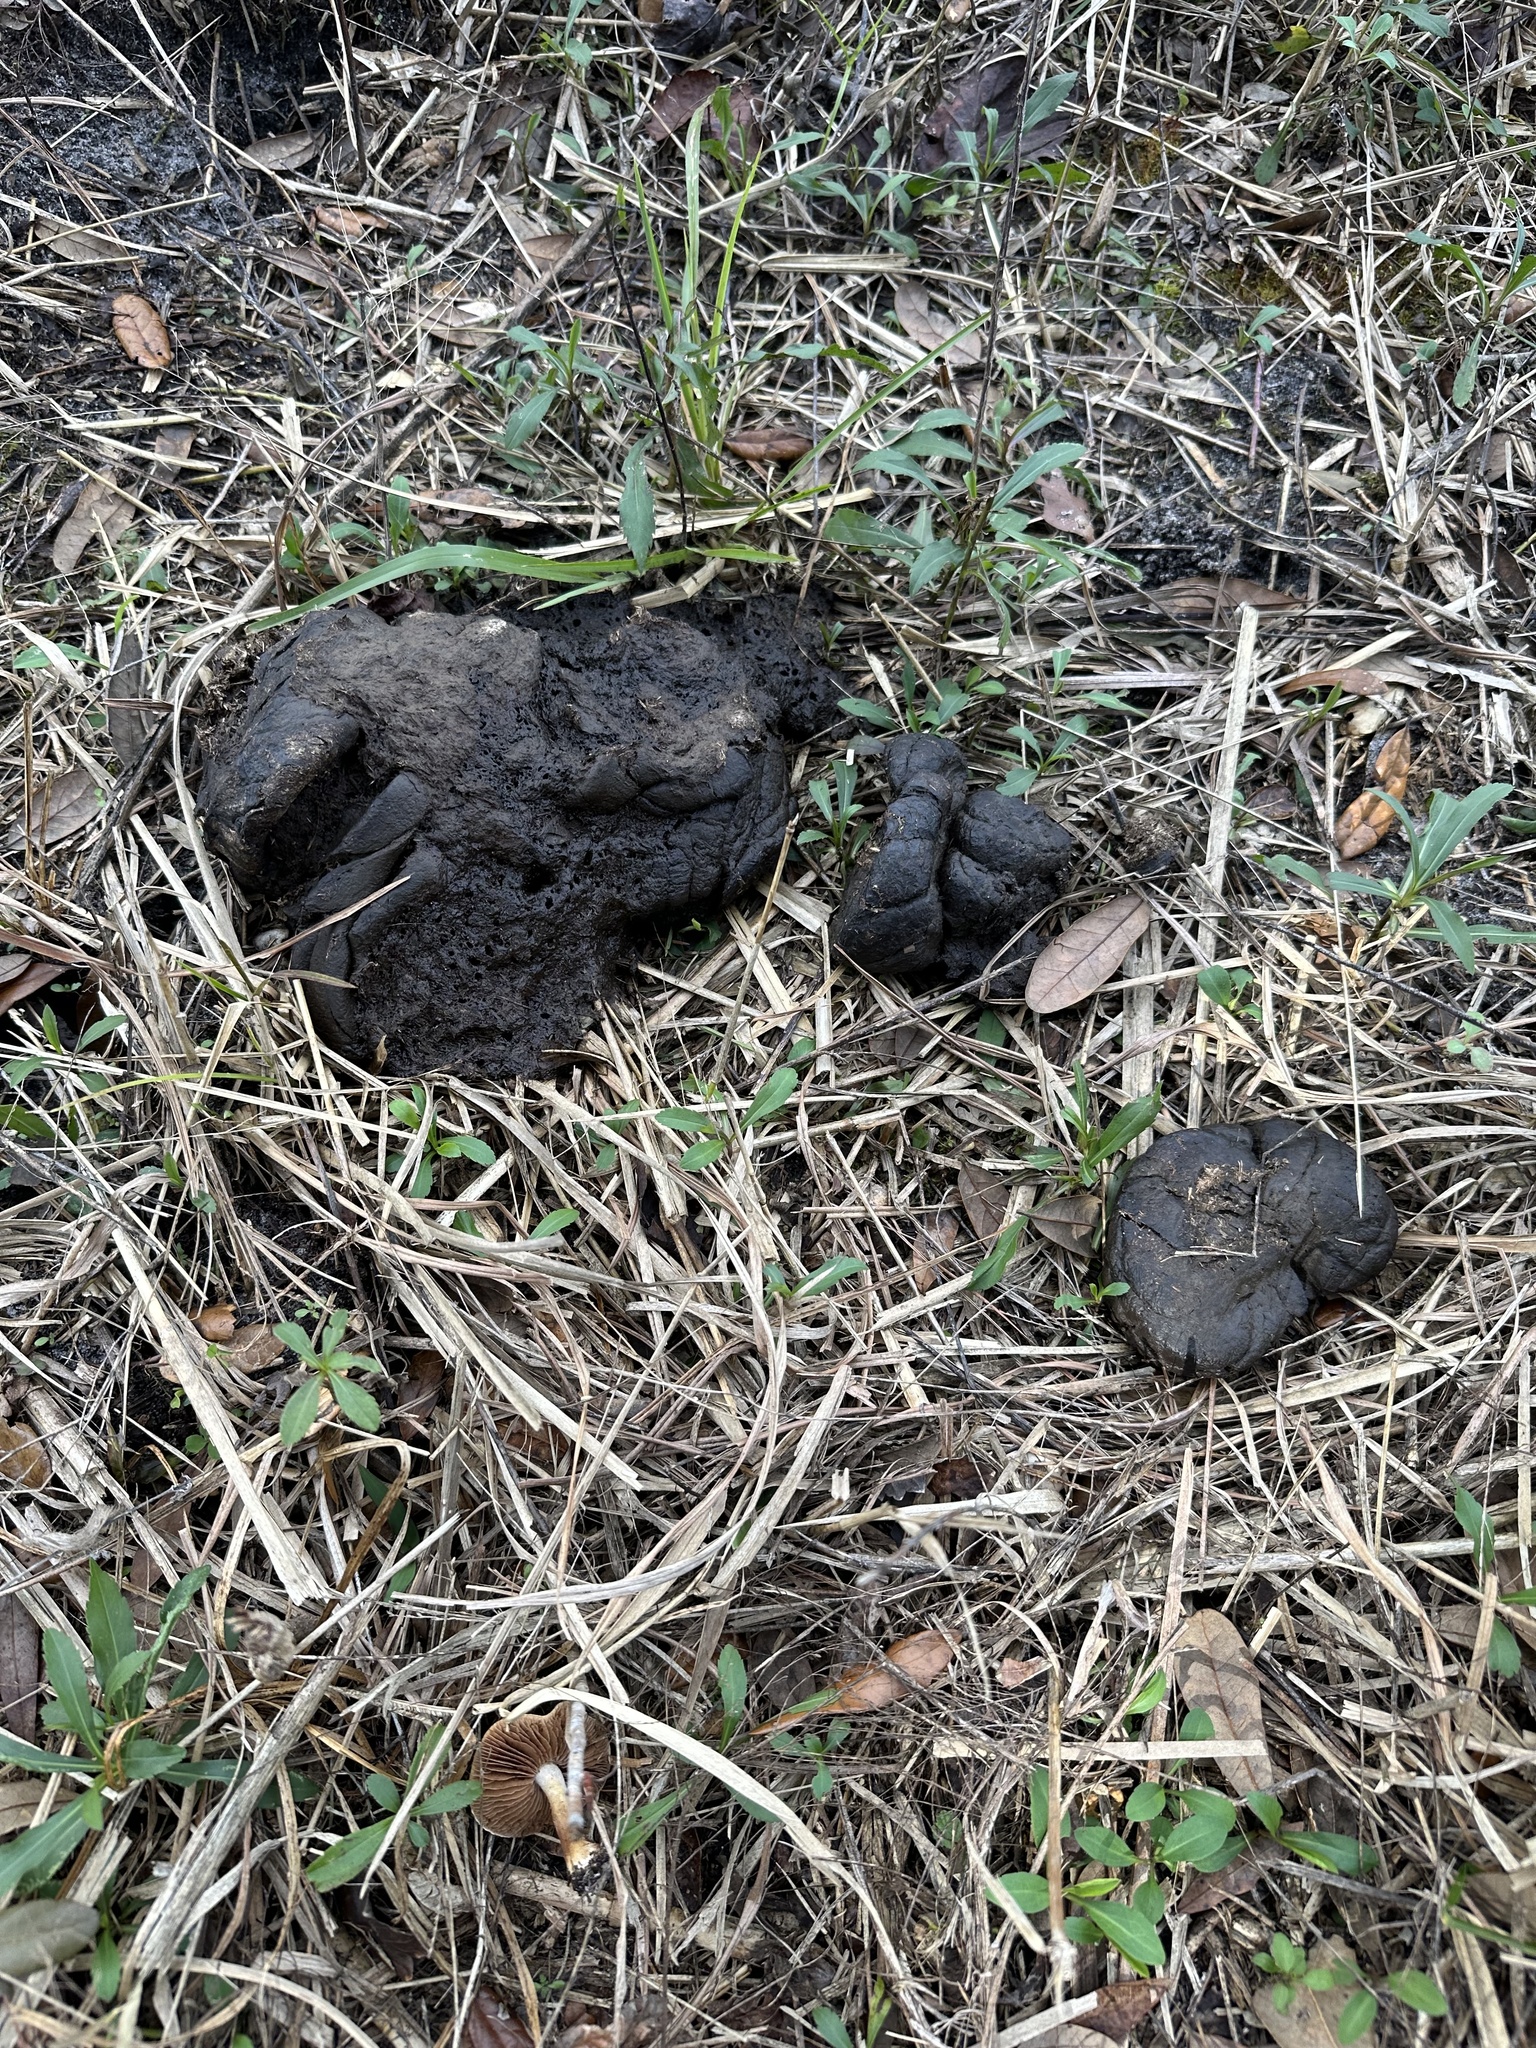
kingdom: Animalia
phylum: Chordata
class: Mammalia
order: Artiodactyla
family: Bovidae
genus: Bison
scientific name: Bison bison
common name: American bison
